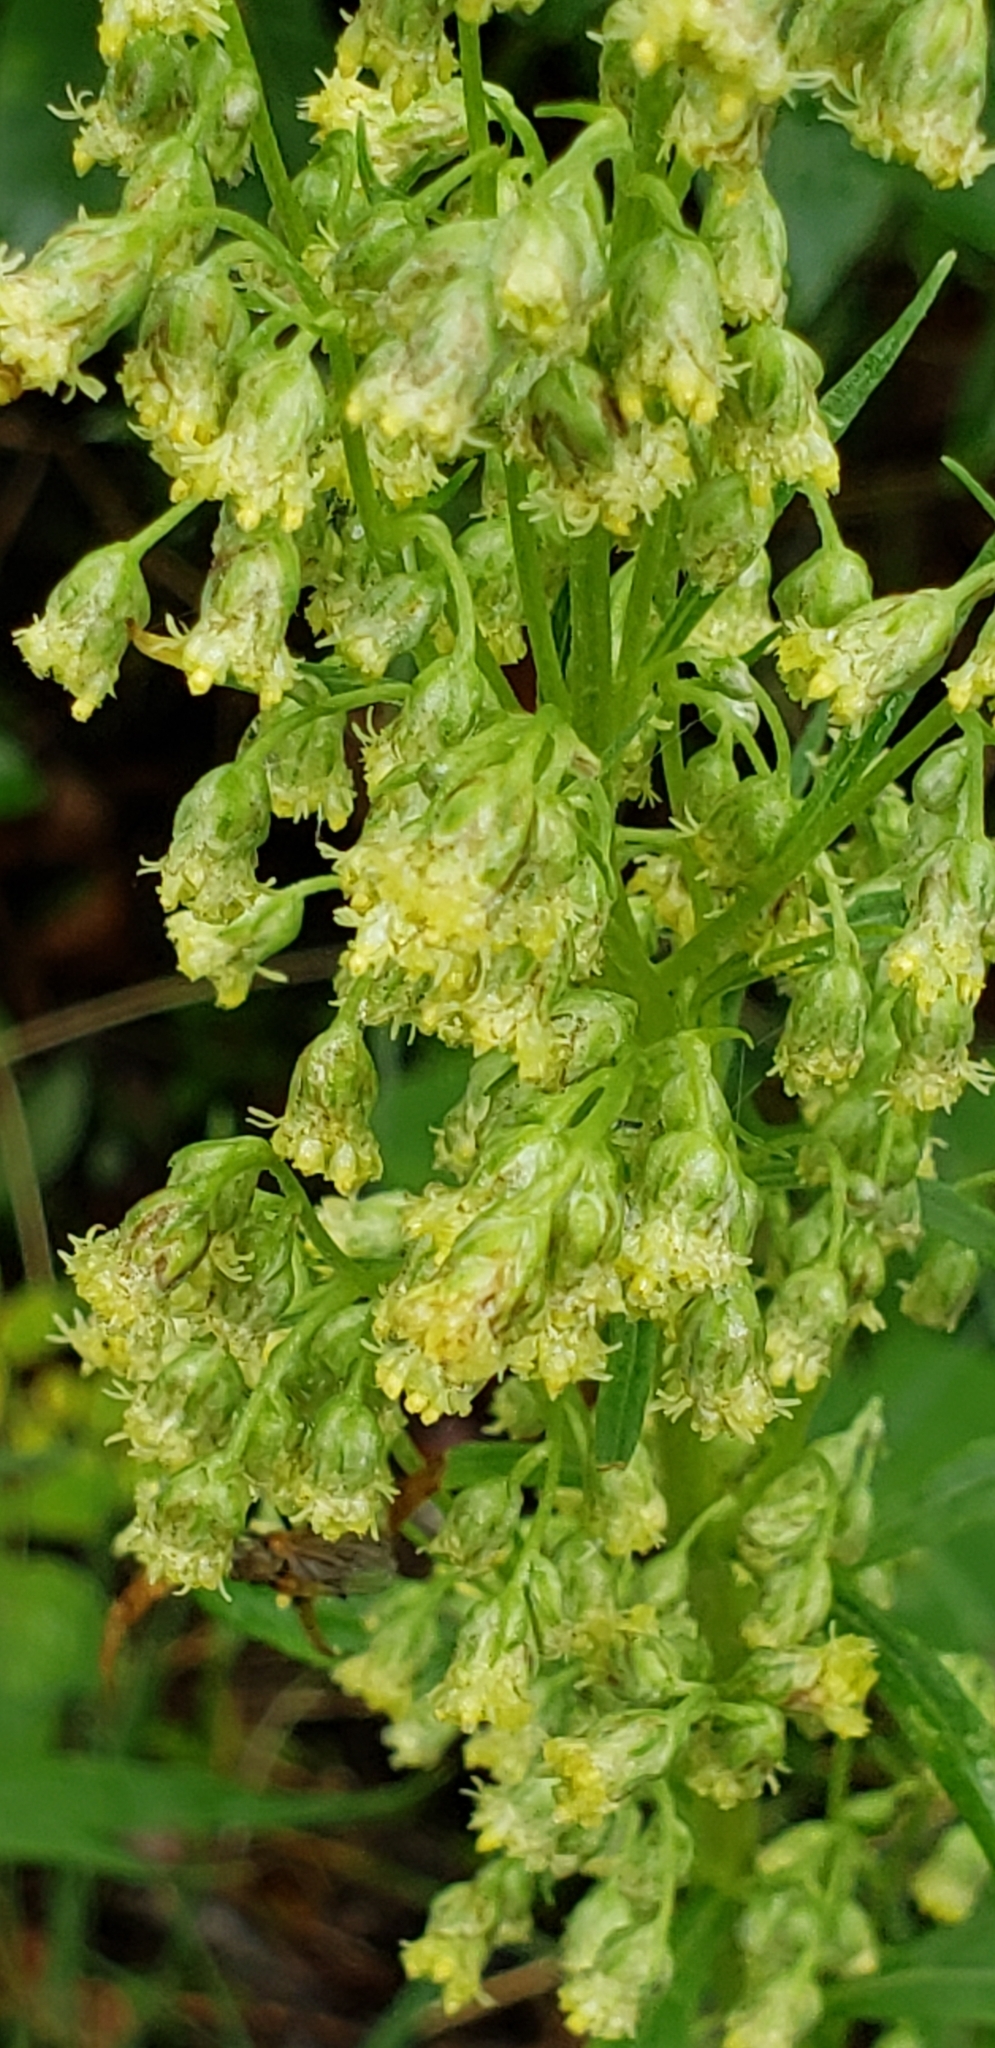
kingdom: Plantae
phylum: Tracheophyta
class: Magnoliopsida
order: Asterales
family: Asteraceae
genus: Artemisia
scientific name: Artemisia tilesii
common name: Aleutian mugwort
